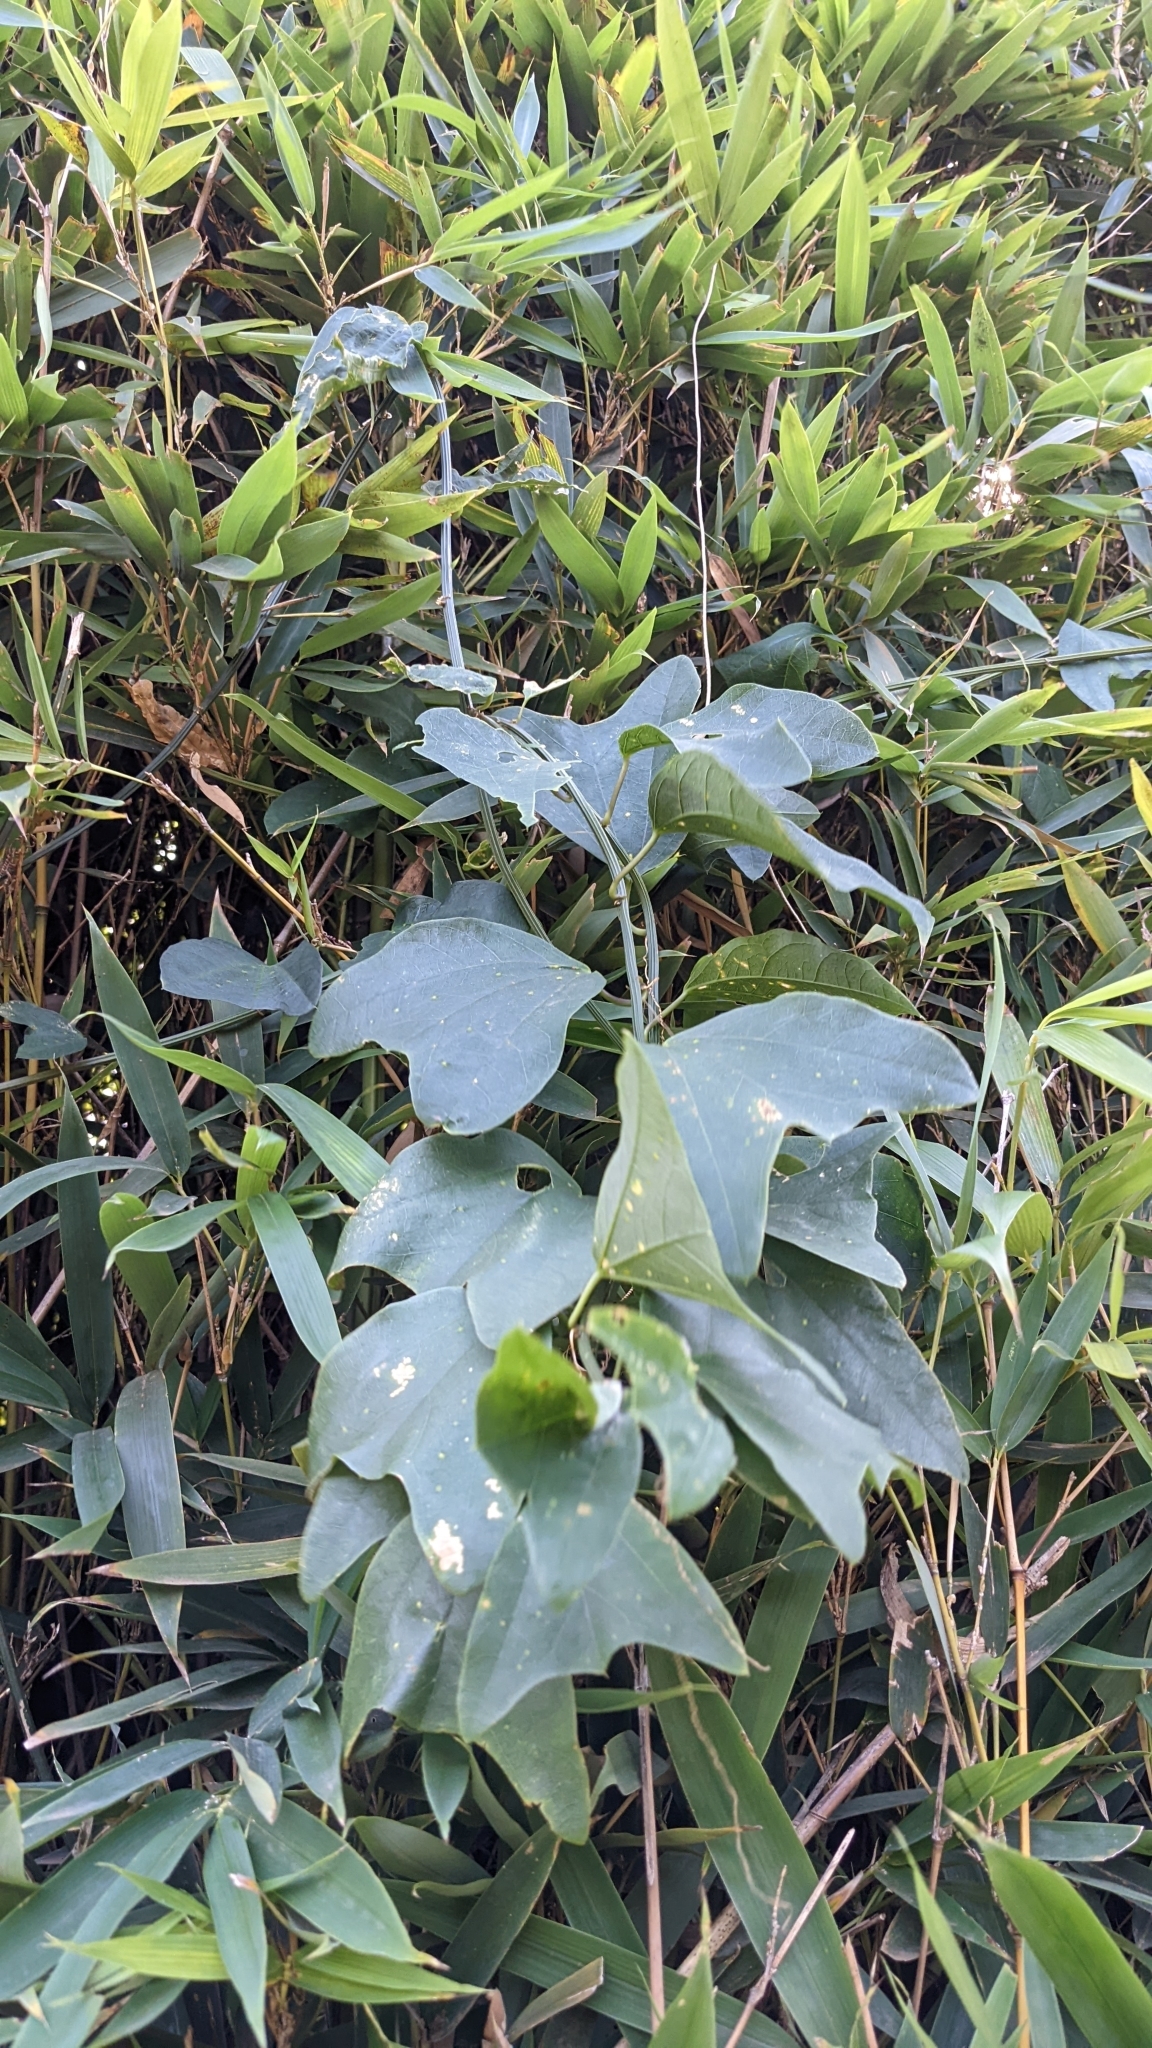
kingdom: Plantae
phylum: Tracheophyta
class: Magnoliopsida
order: Malpighiales
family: Passifloraceae
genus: Passiflora
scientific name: Passiflora biflora
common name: Twoflower passionflower
